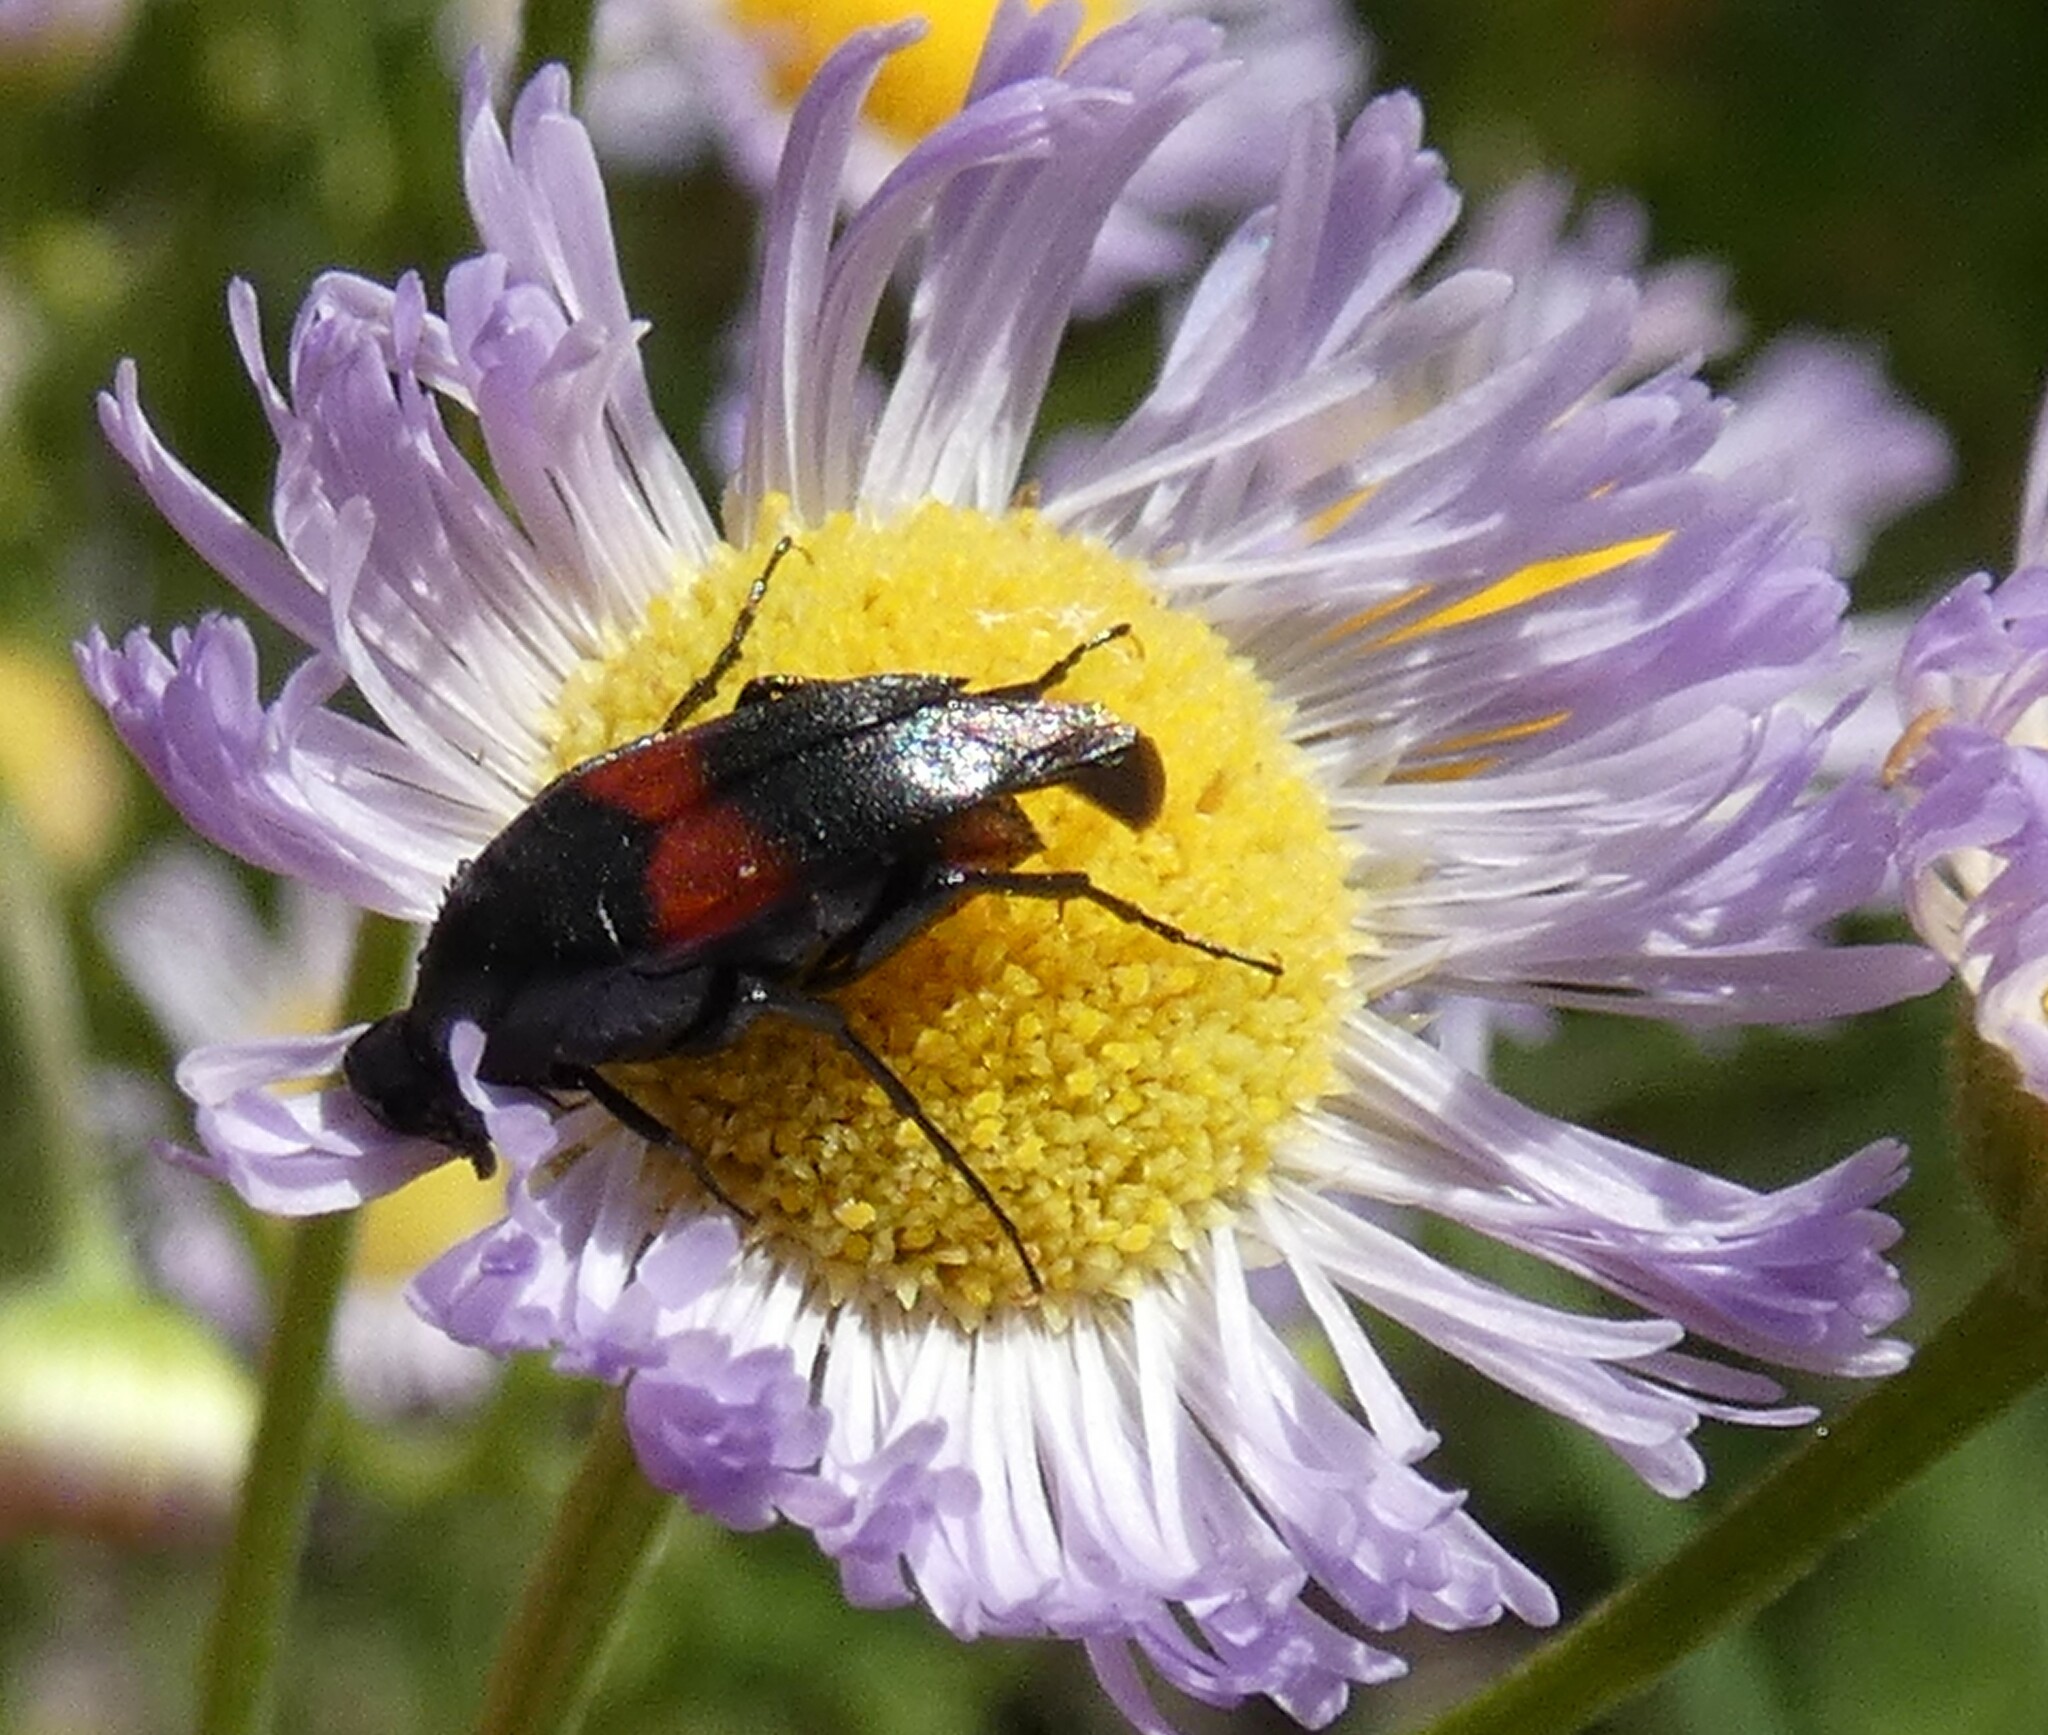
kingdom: Animalia
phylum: Arthropoda
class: Insecta
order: Coleoptera
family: Ripiphoridae
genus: Macrosiagon
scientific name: Macrosiagon cruentum
